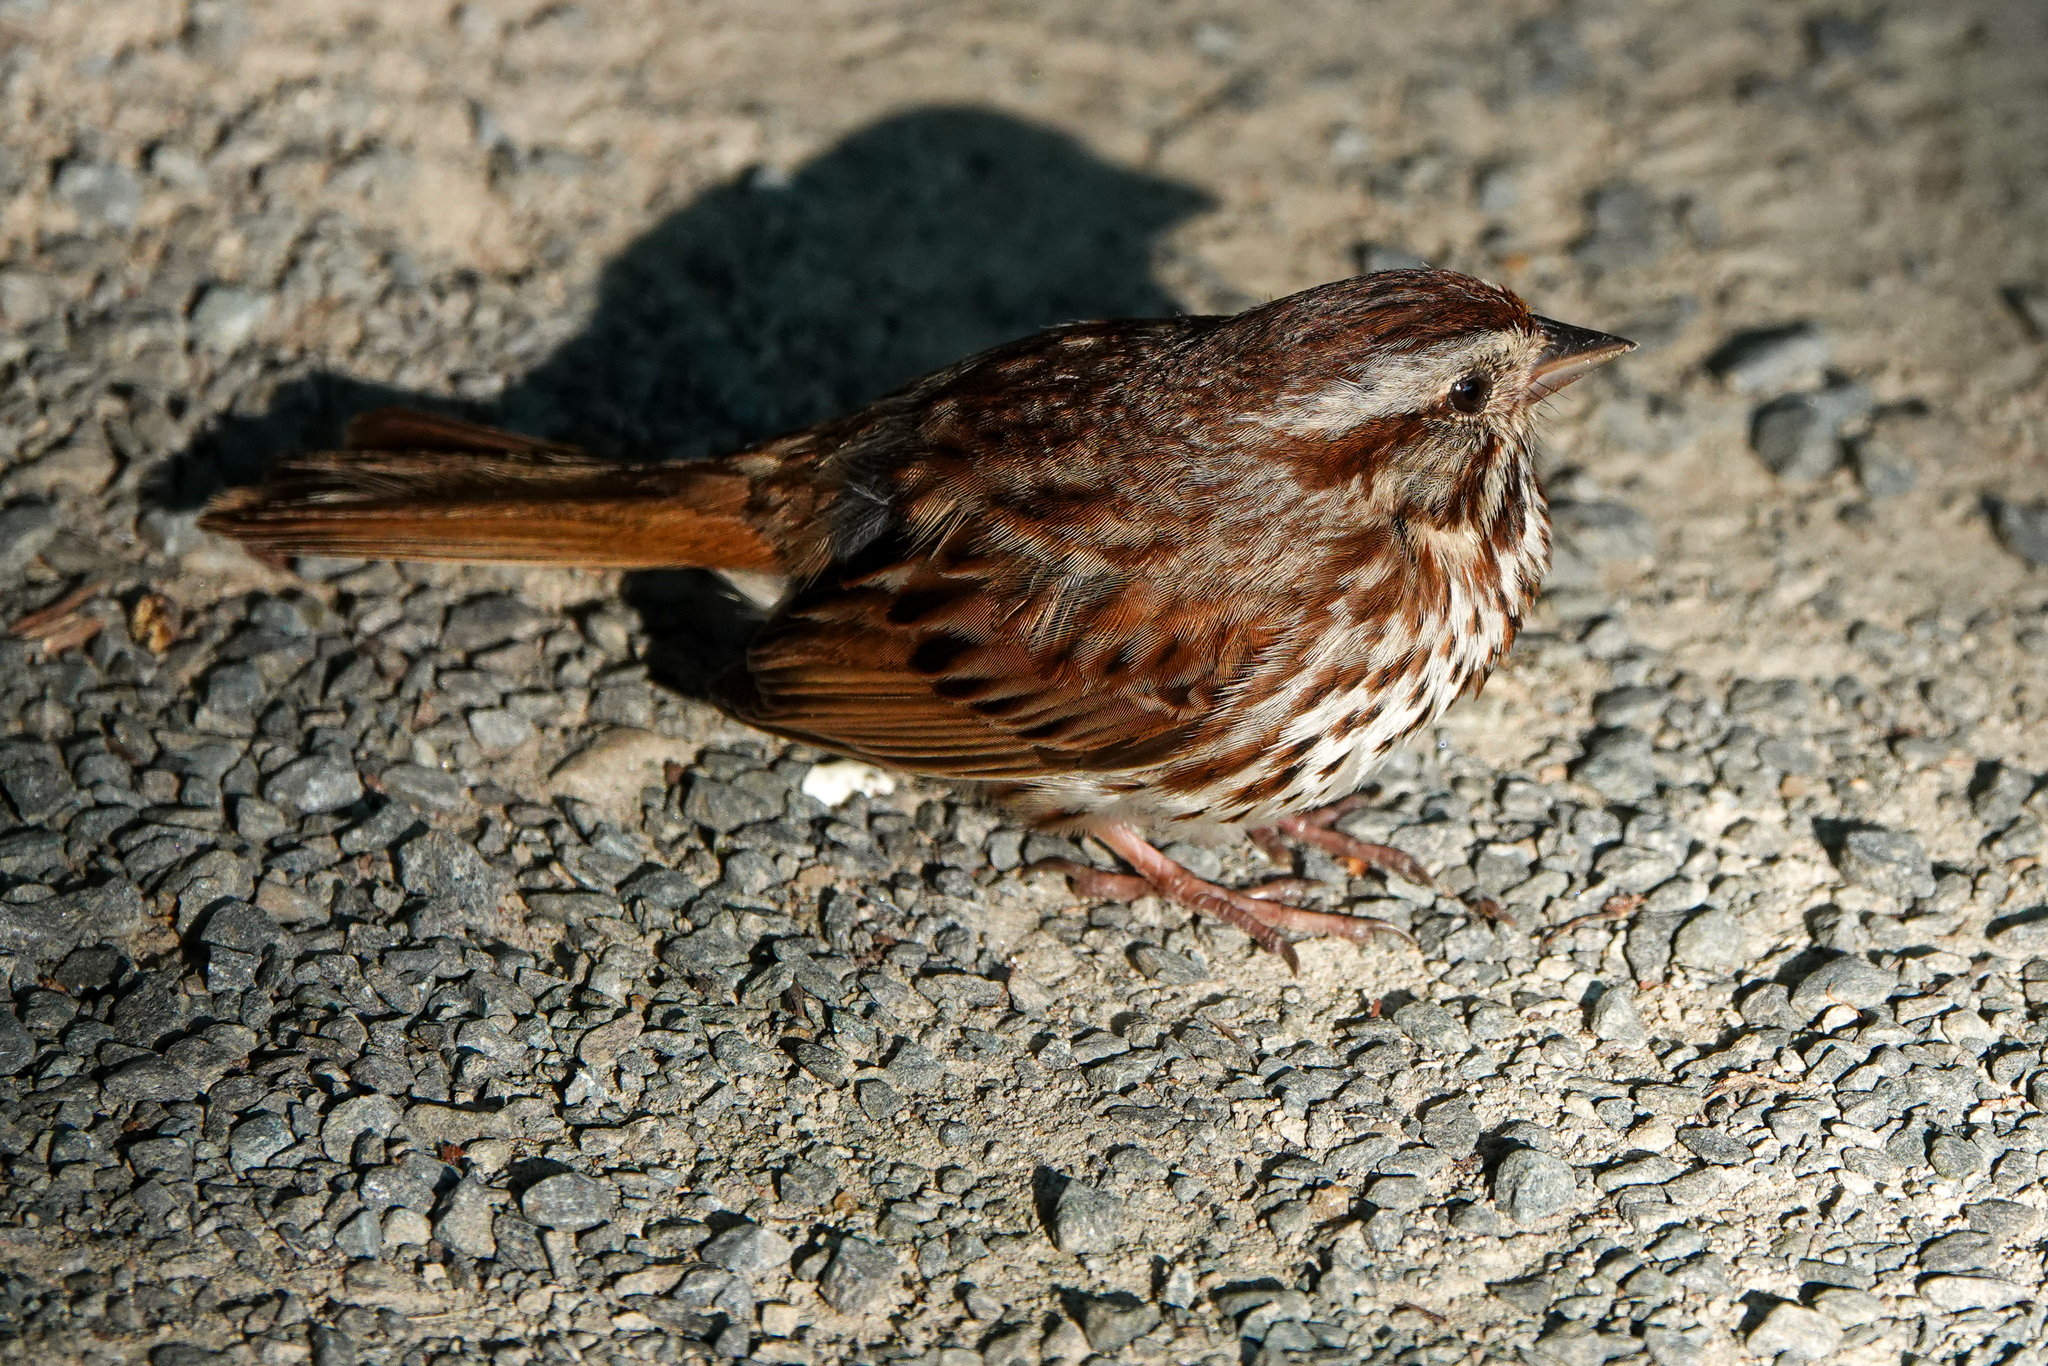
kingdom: Animalia
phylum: Chordata
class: Aves
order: Passeriformes
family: Passerellidae
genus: Melospiza
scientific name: Melospiza melodia
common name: Song sparrow
